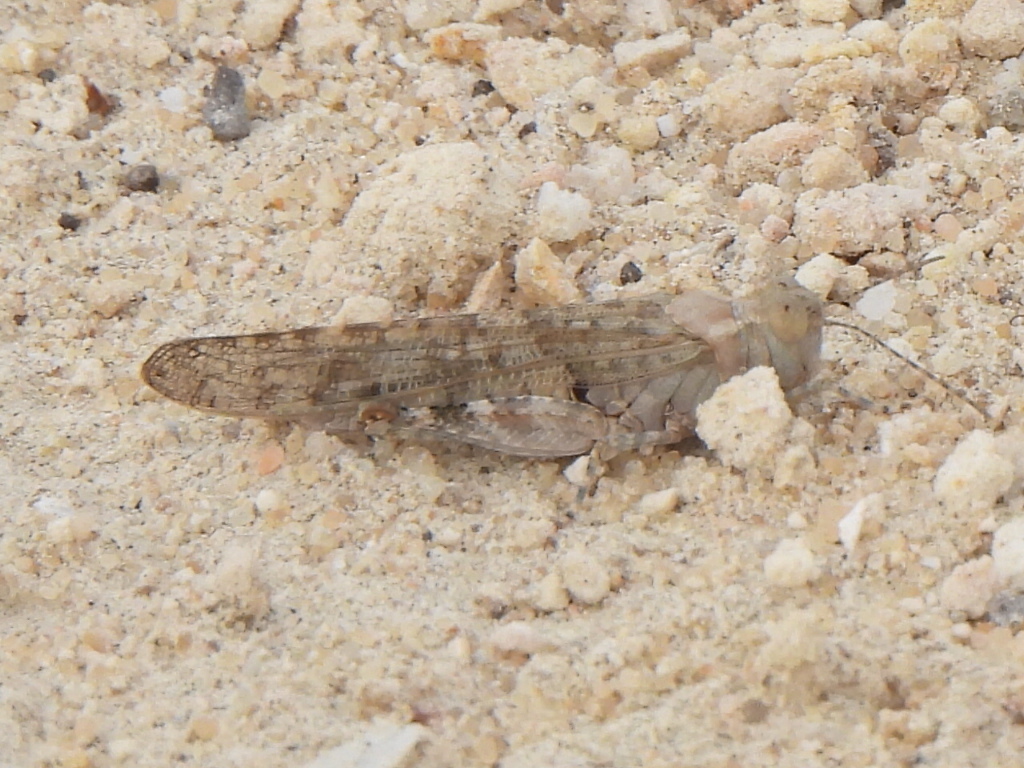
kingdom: Animalia
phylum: Arthropoda
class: Insecta
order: Orthoptera
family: Acrididae
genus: Sphingonotus
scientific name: Sphingonotus rubescens
